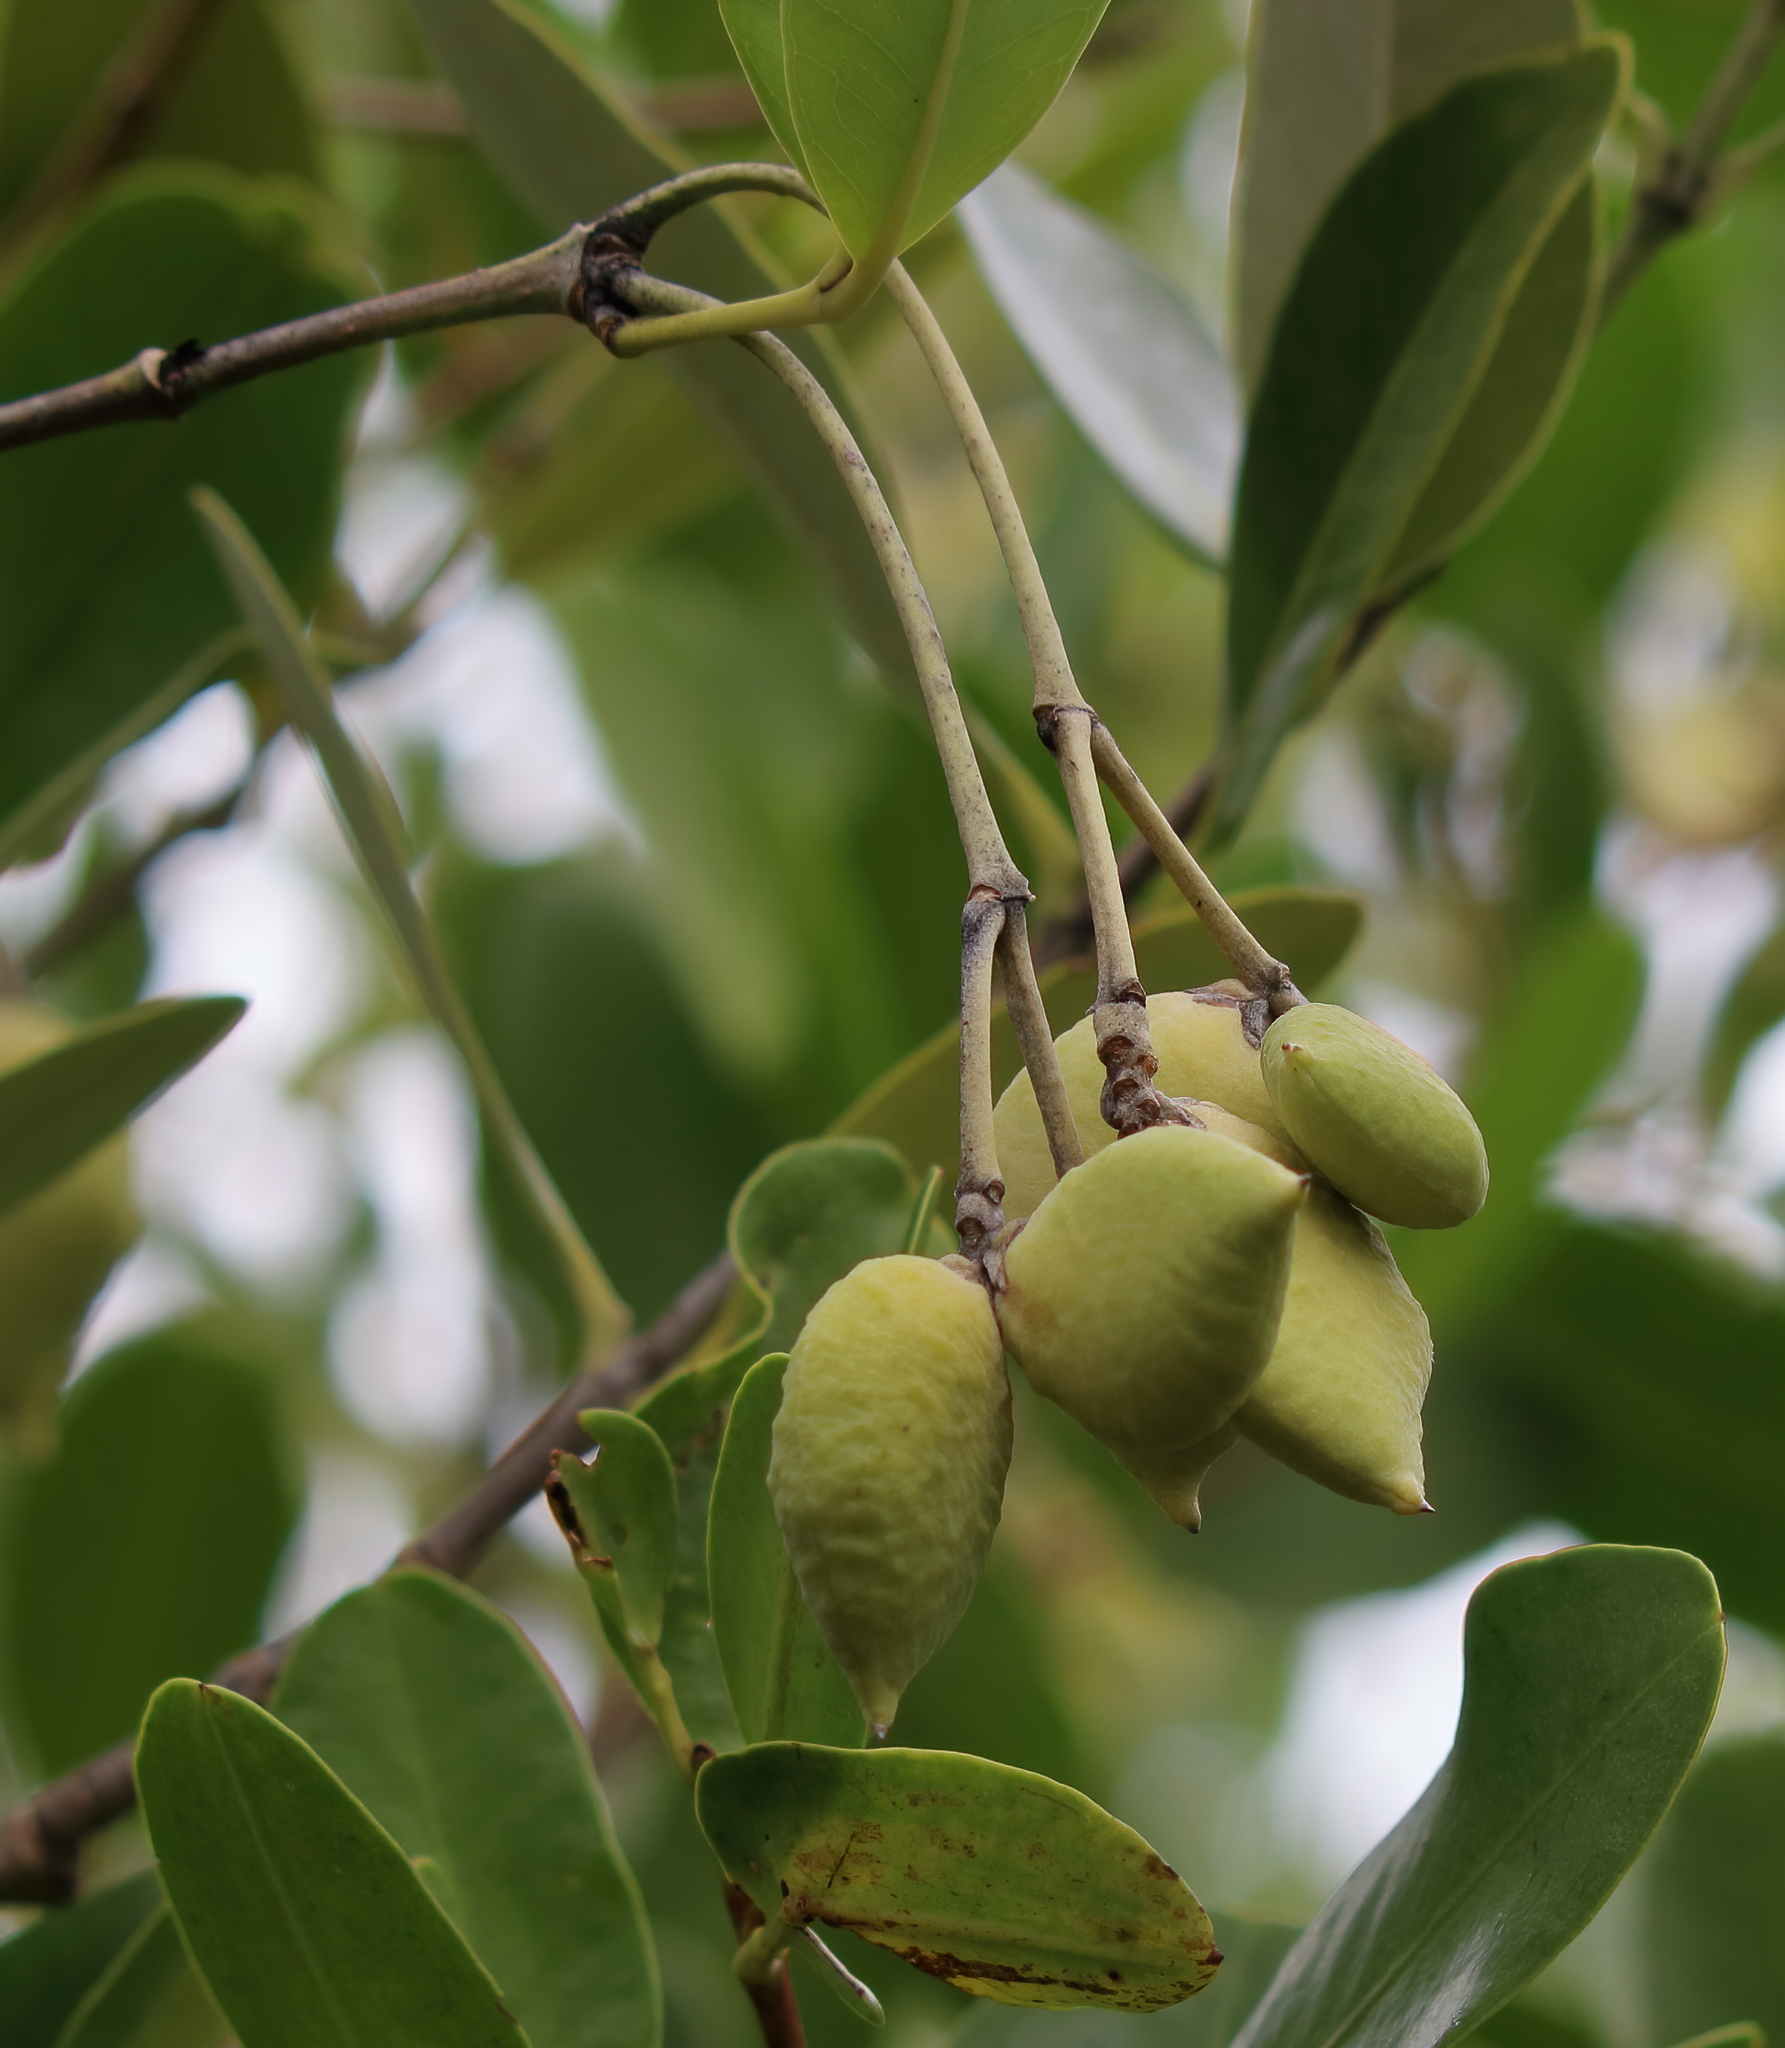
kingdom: Plantae
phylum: Tracheophyta
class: Magnoliopsida
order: Lamiales
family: Acanthaceae
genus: Avicennia
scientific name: Avicennia germinans
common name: Black mangrove
